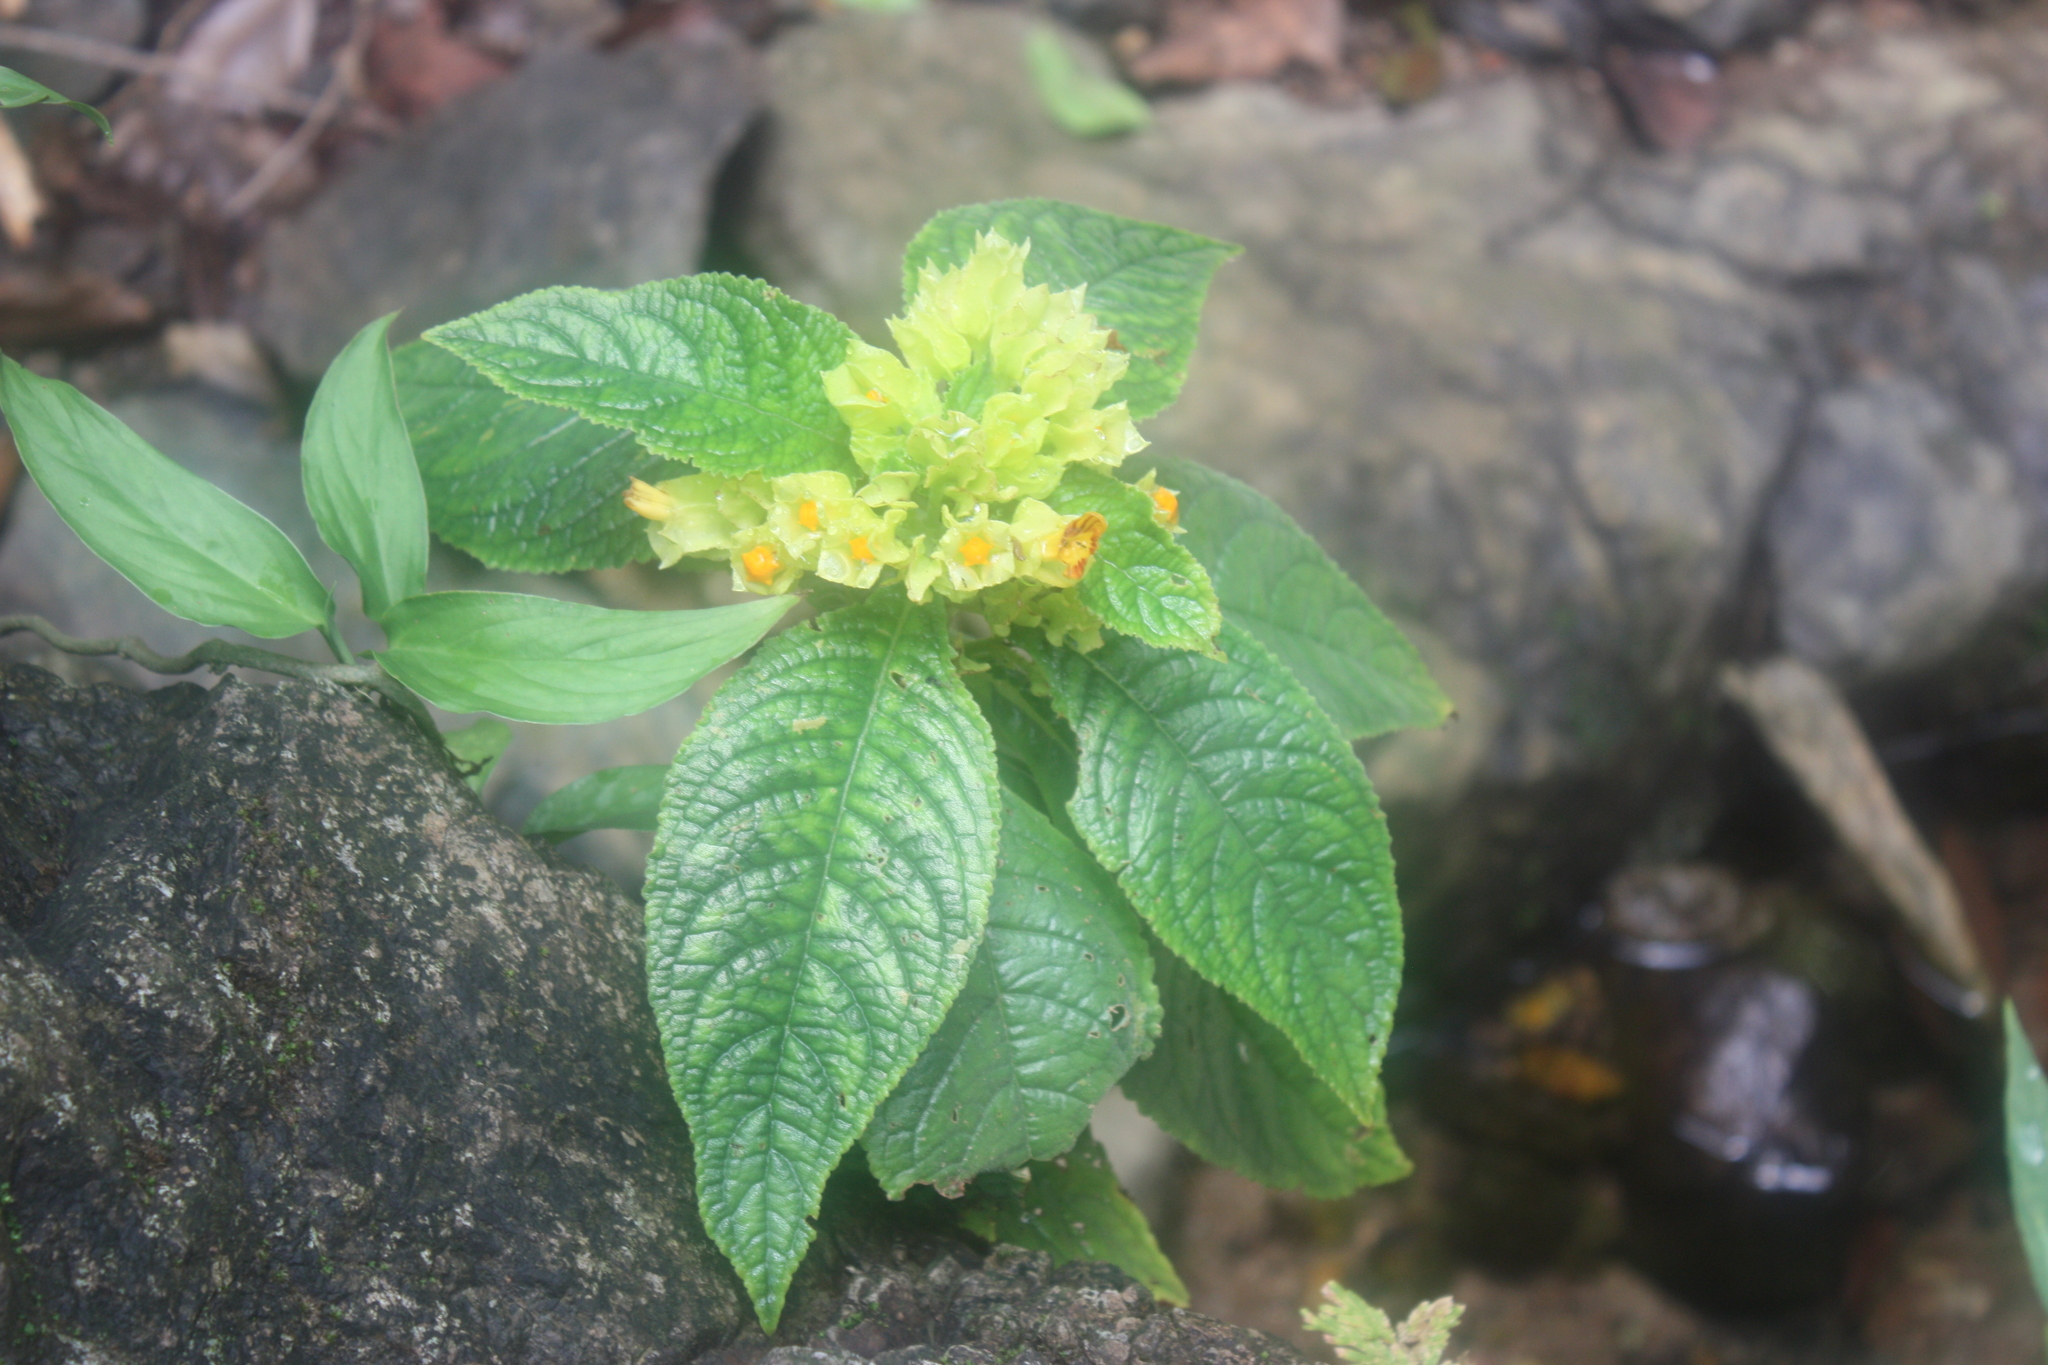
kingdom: Plantae
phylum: Tracheophyta
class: Magnoliopsida
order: Lamiales
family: Gesneriaceae
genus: Chrysothemis
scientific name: Chrysothemis friedrichsthaliana
